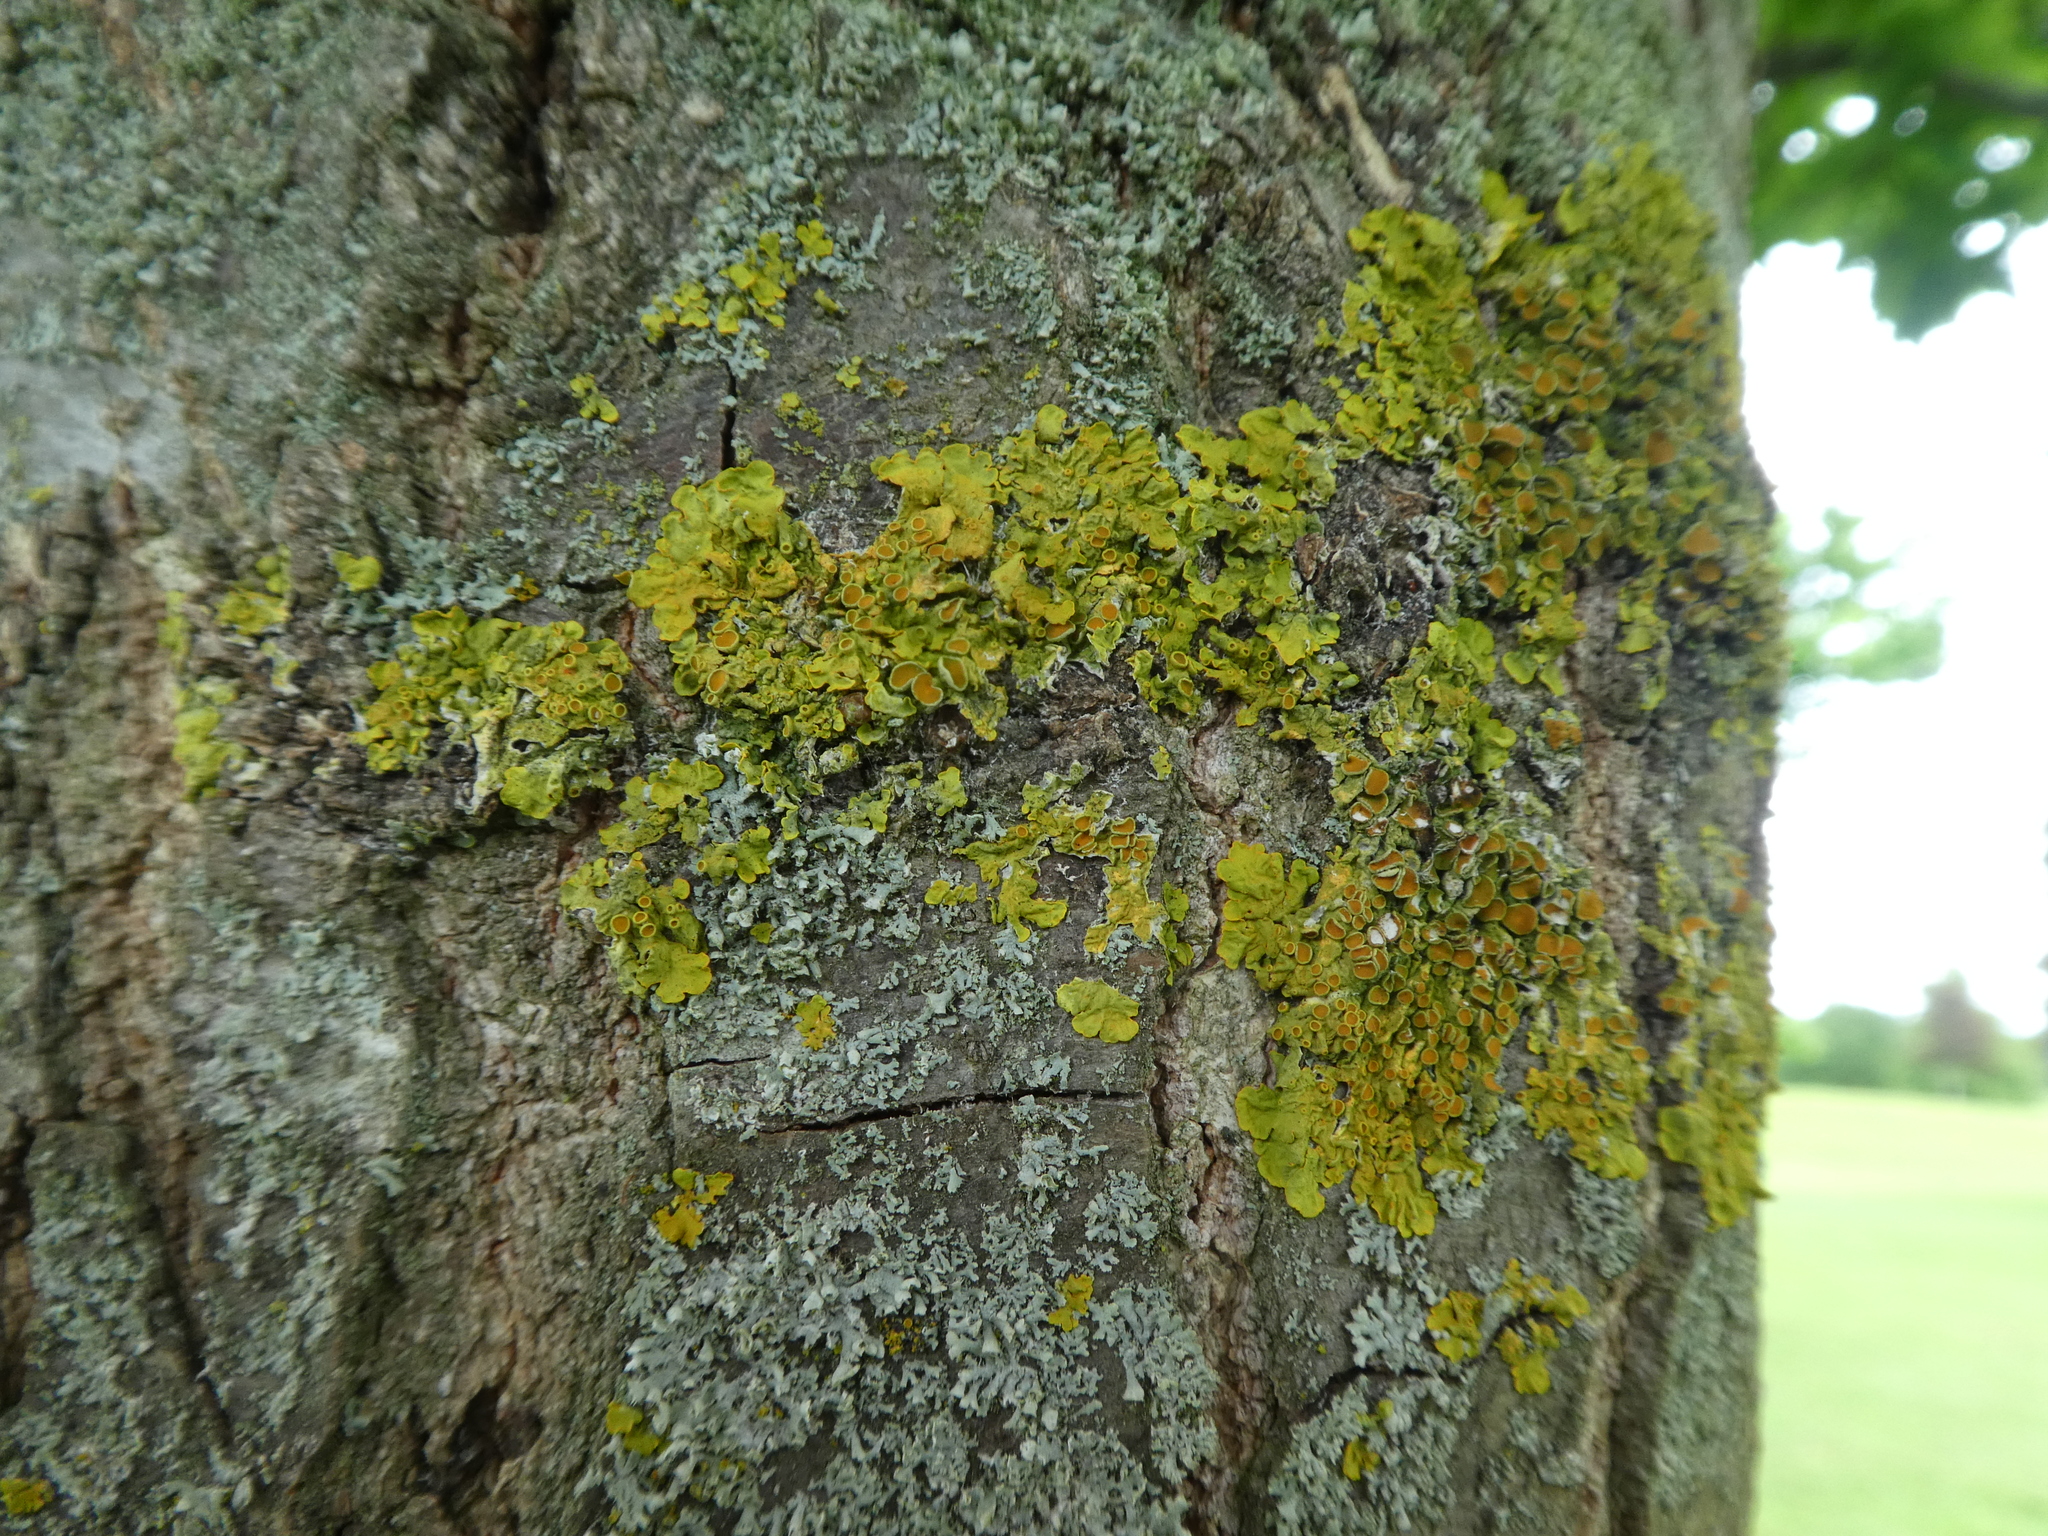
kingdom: Fungi
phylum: Ascomycota
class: Lecanoromycetes
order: Teloschistales
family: Teloschistaceae
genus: Xanthoria
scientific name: Xanthoria parietina
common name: Common orange lichen
